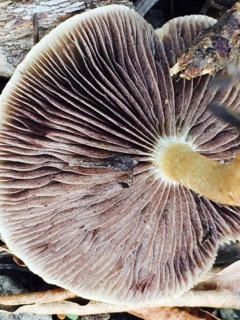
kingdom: Fungi
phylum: Basidiomycota
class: Agaricomycetes
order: Agaricales
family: Strophariaceae
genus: Leratiomyces
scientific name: Leratiomyces percevalii
